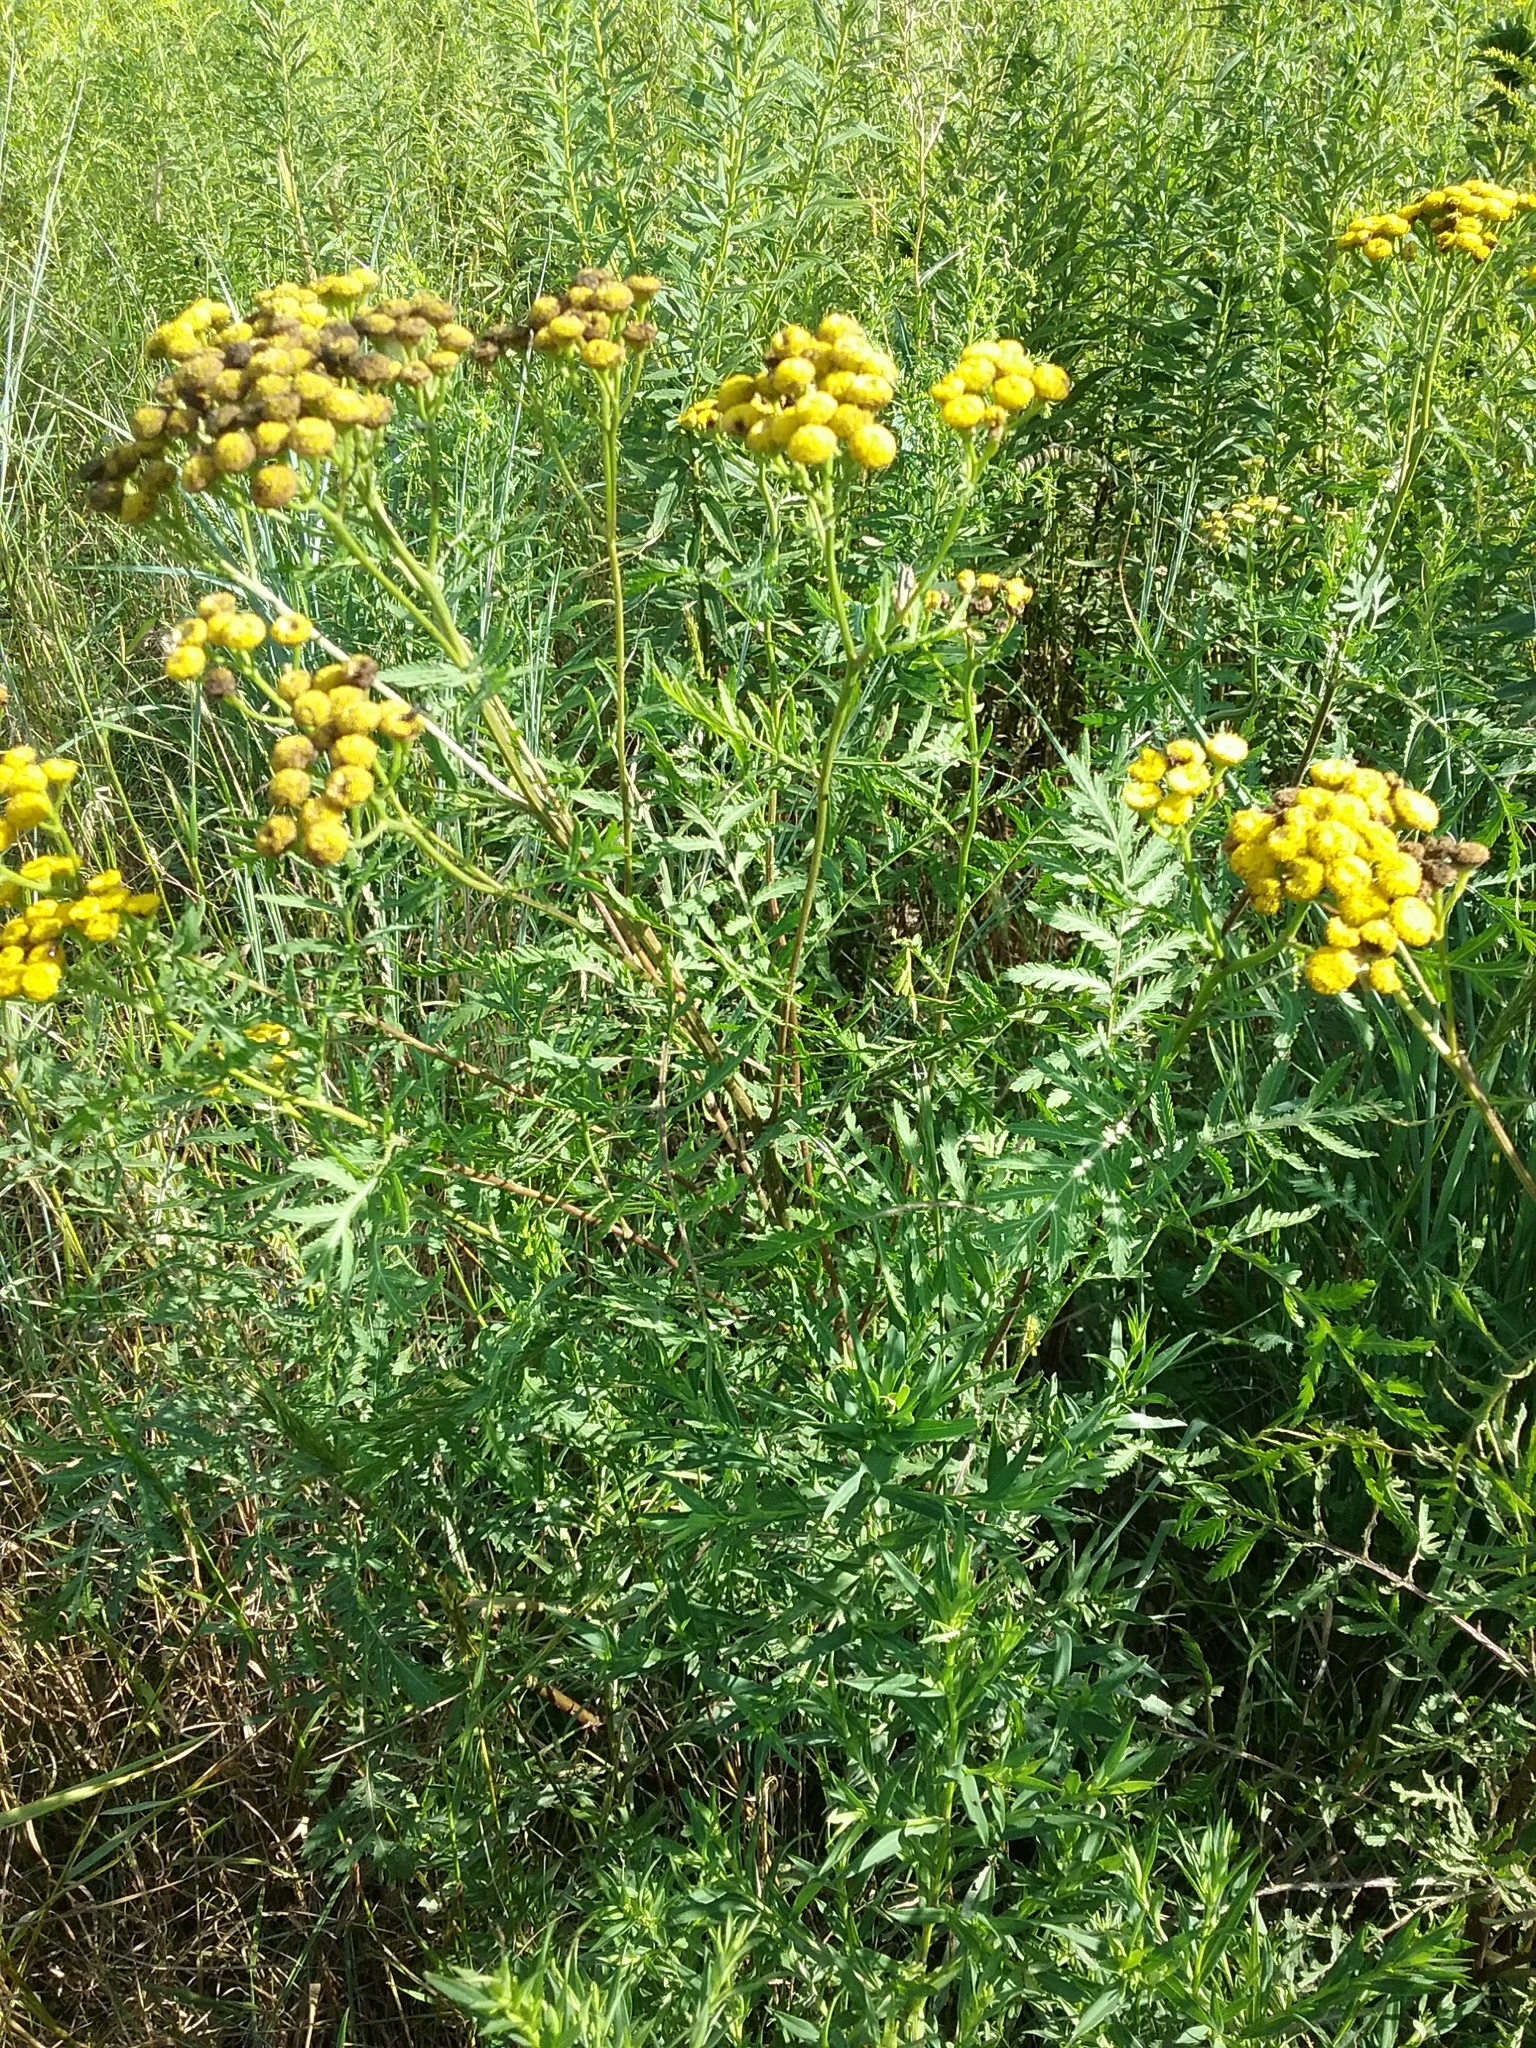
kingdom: Plantae
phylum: Tracheophyta
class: Magnoliopsida
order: Asterales
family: Asteraceae
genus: Tanacetum
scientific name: Tanacetum vulgare
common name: Common tansy
